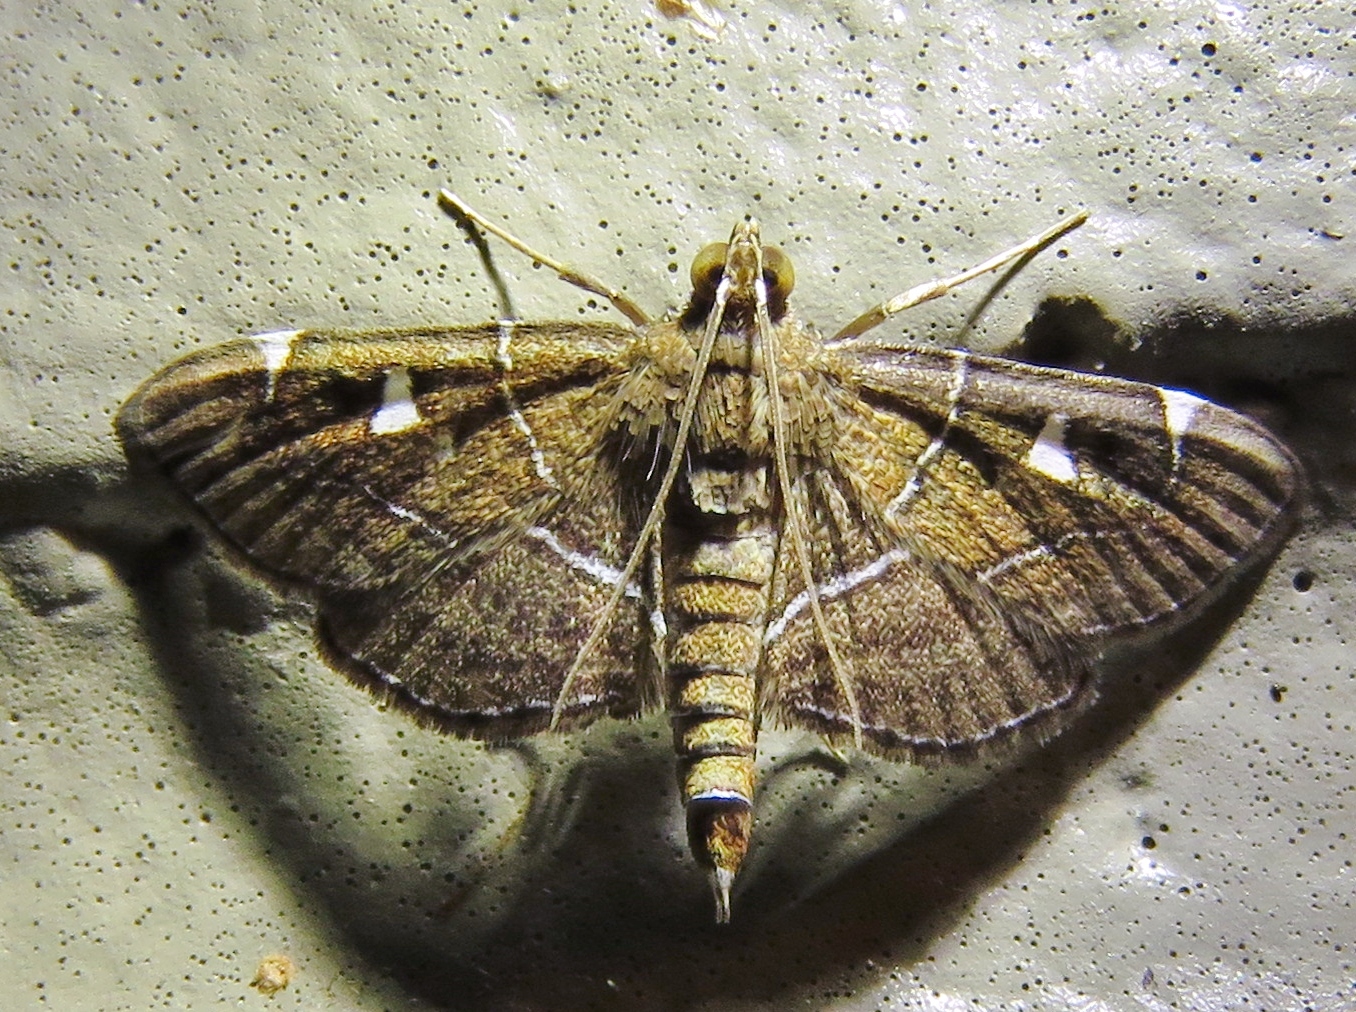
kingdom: Animalia
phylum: Arthropoda
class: Insecta
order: Lepidoptera
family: Crambidae
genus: Lamprosema
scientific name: Lamprosema victoriae
